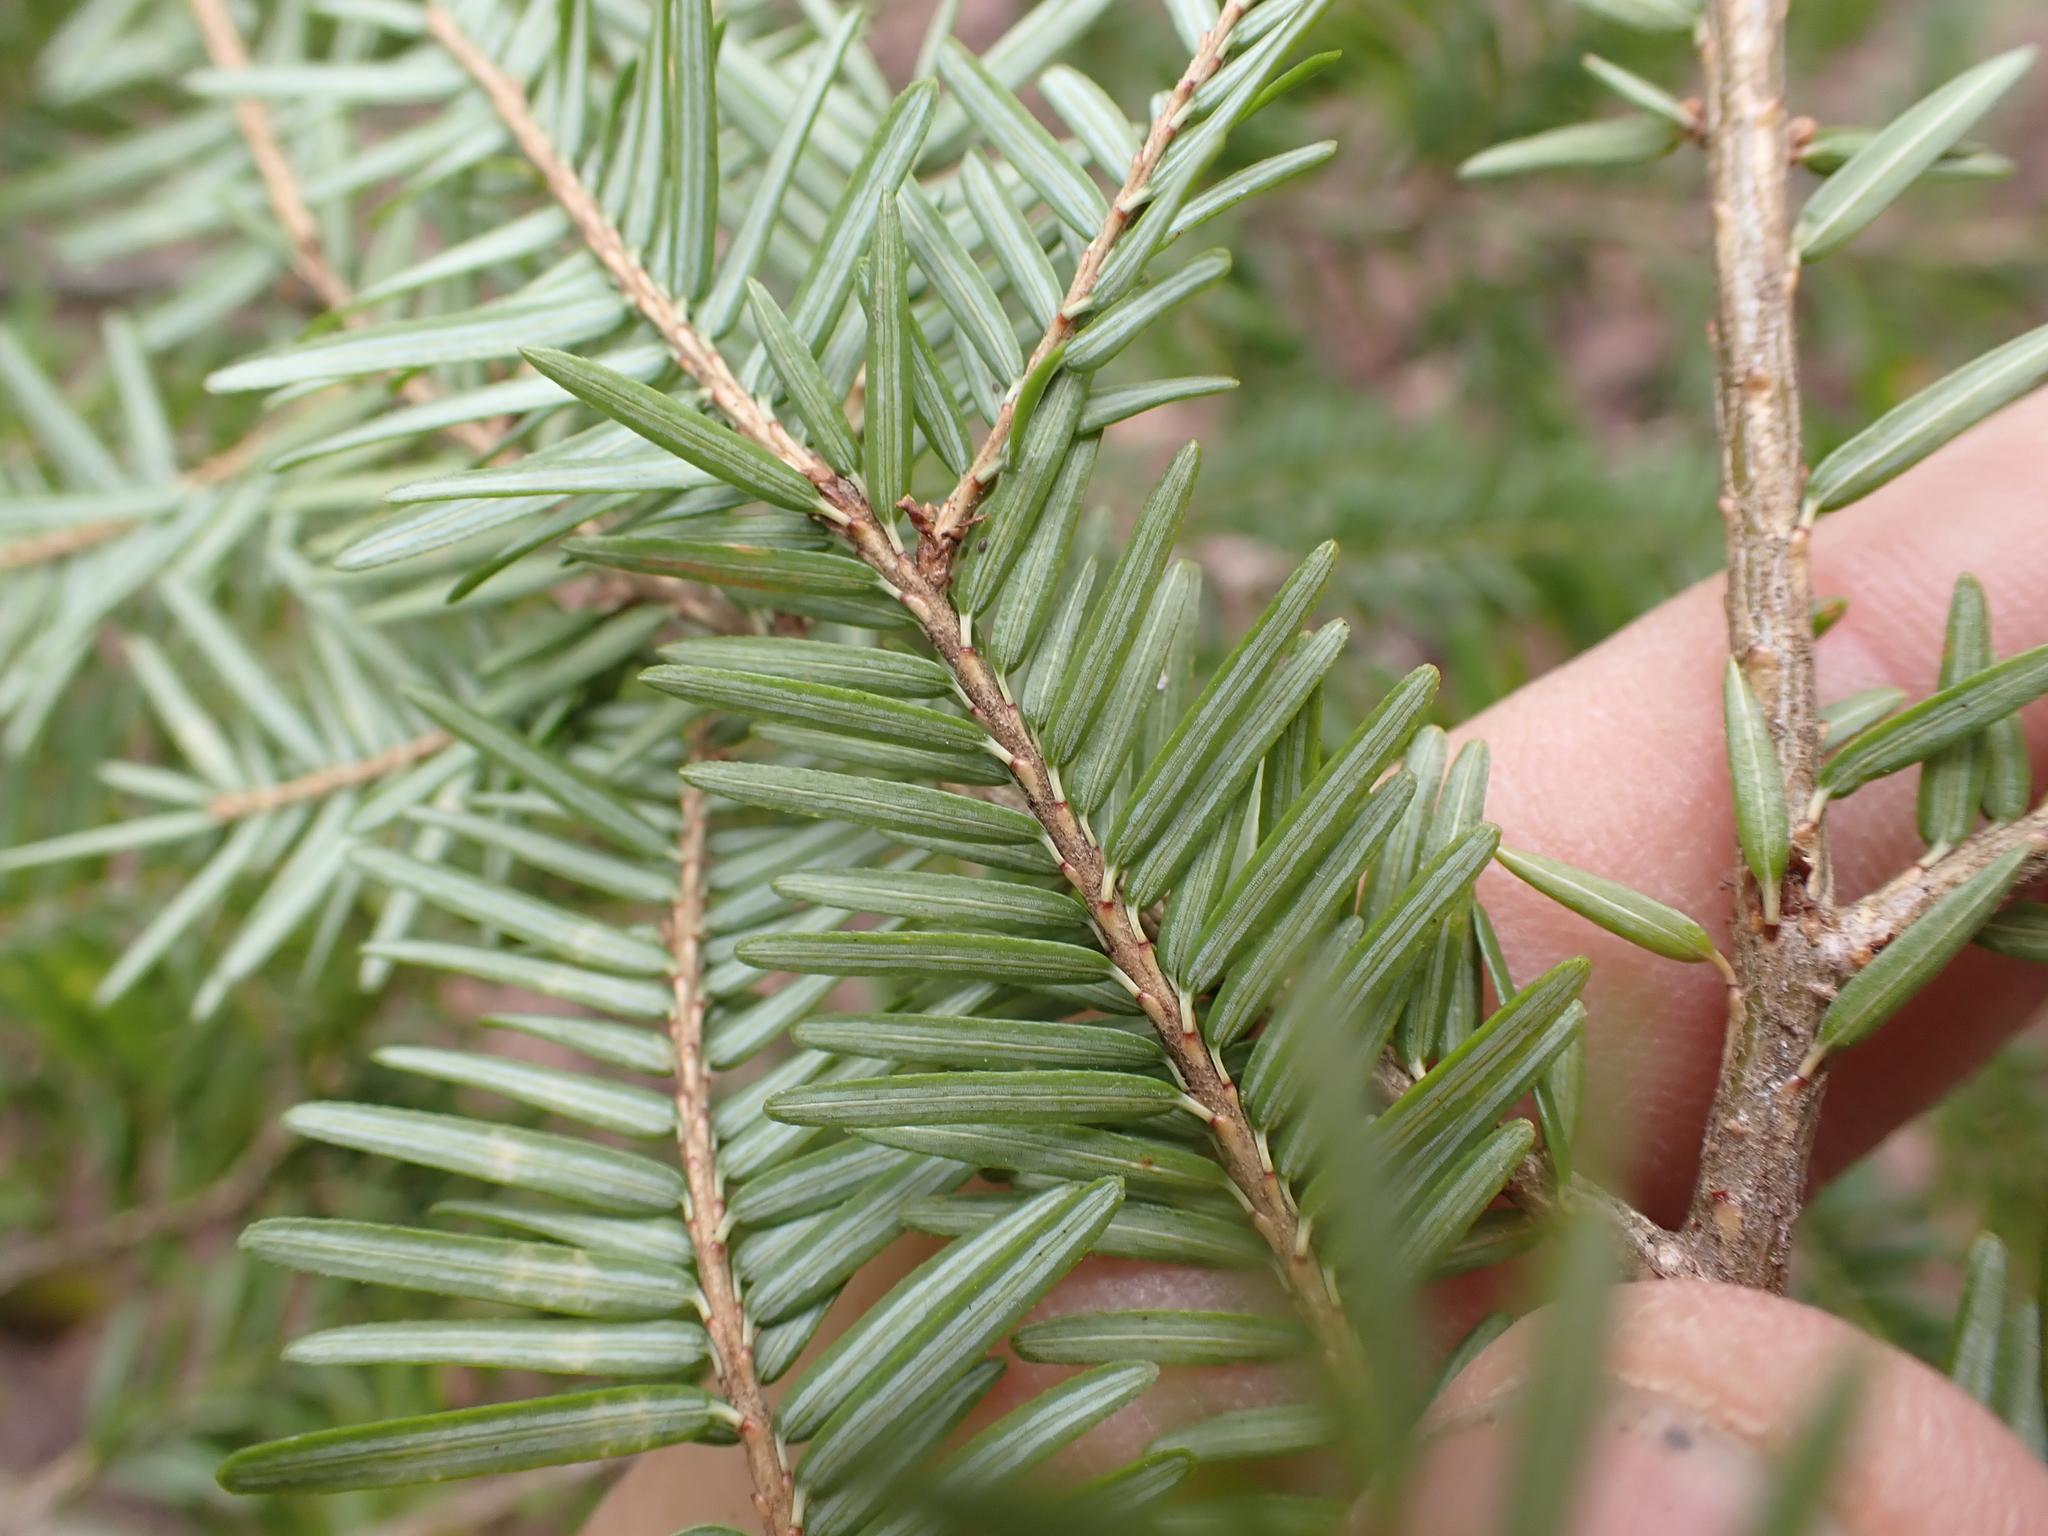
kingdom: Plantae
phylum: Tracheophyta
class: Pinopsida
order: Pinales
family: Pinaceae
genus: Tsuga
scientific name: Tsuga canadensis
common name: Eastern hemlock
